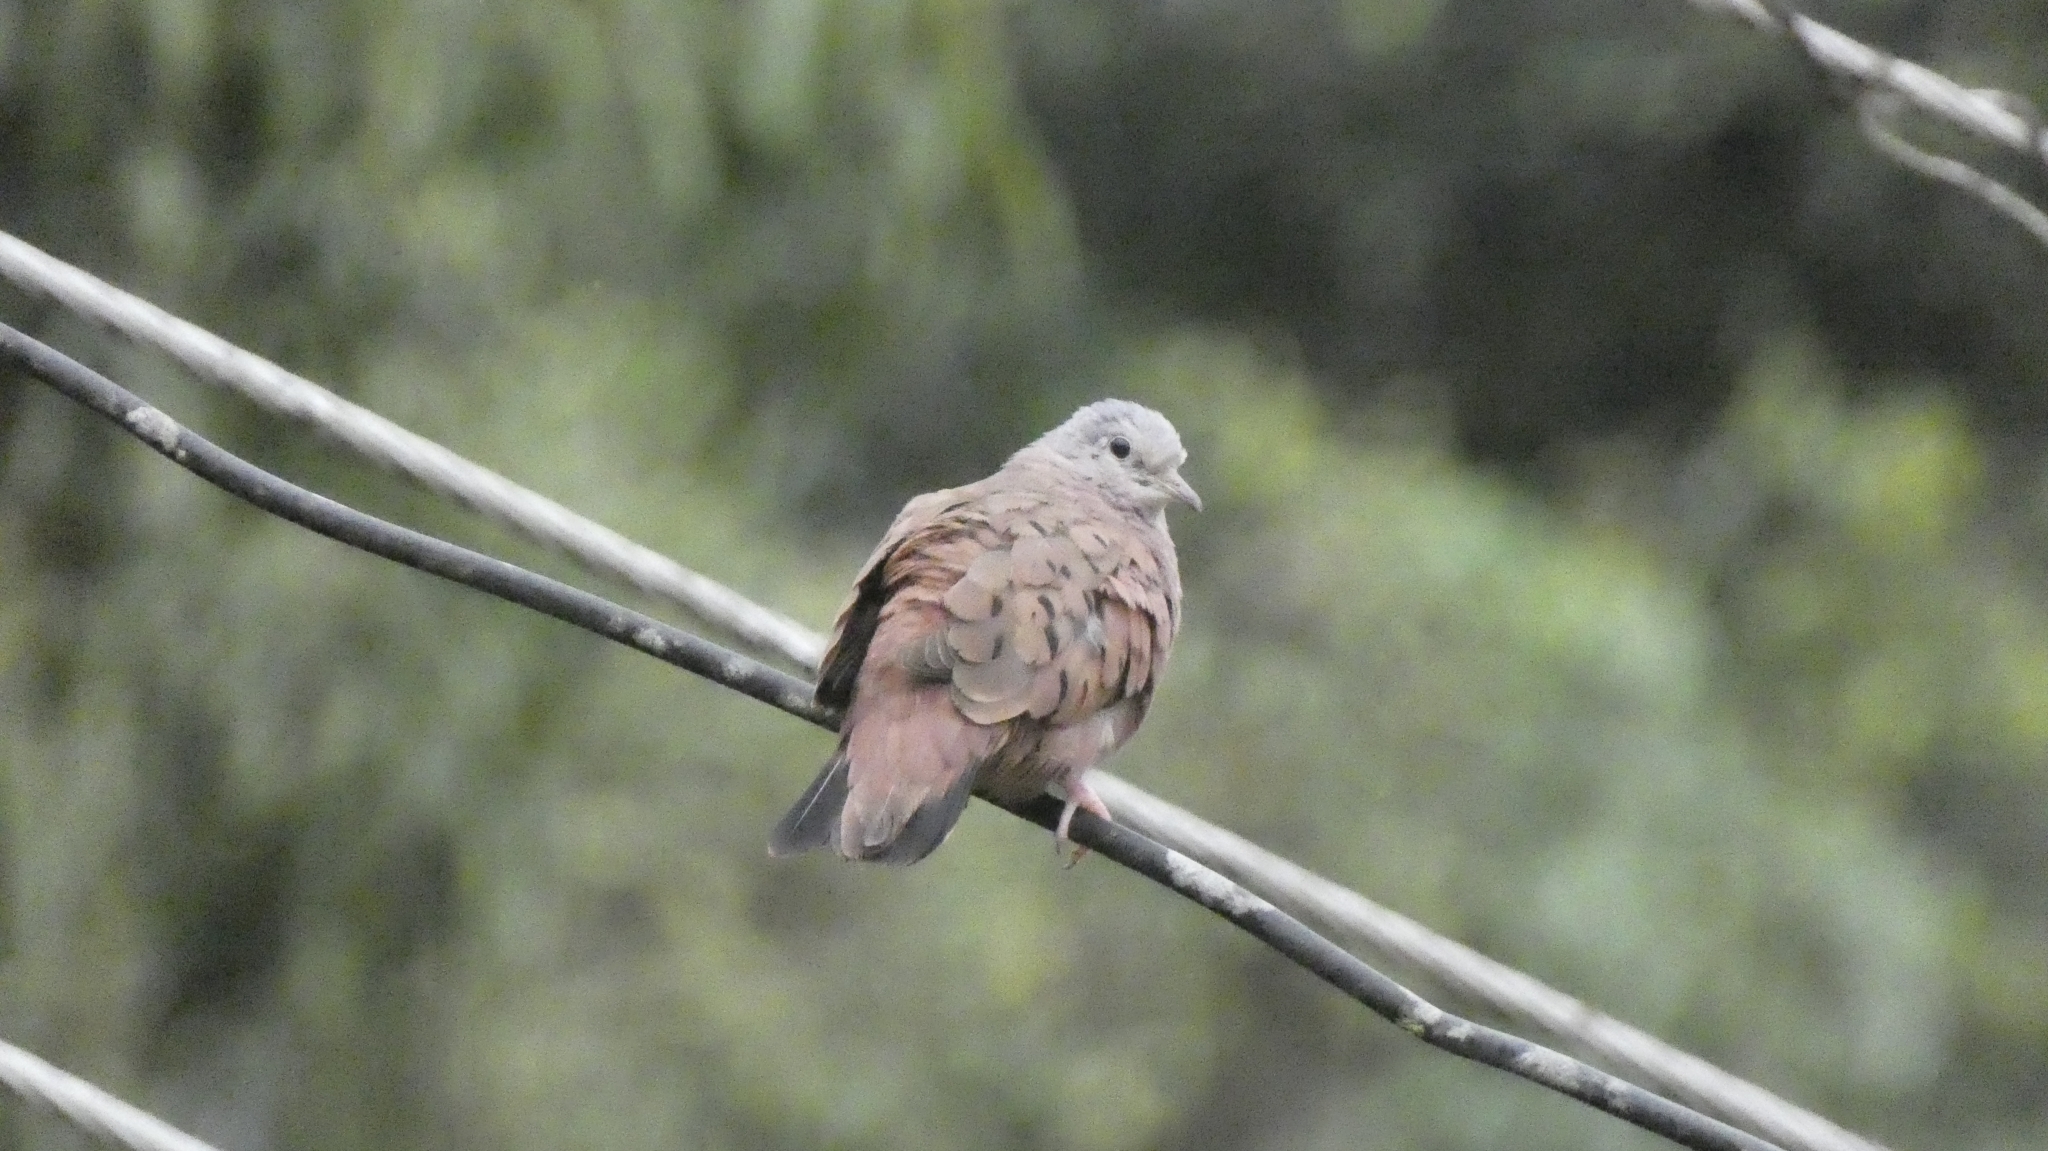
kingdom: Animalia
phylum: Chordata
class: Aves
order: Columbiformes
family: Columbidae
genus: Columbina
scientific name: Columbina talpacoti
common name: Ruddy ground dove
